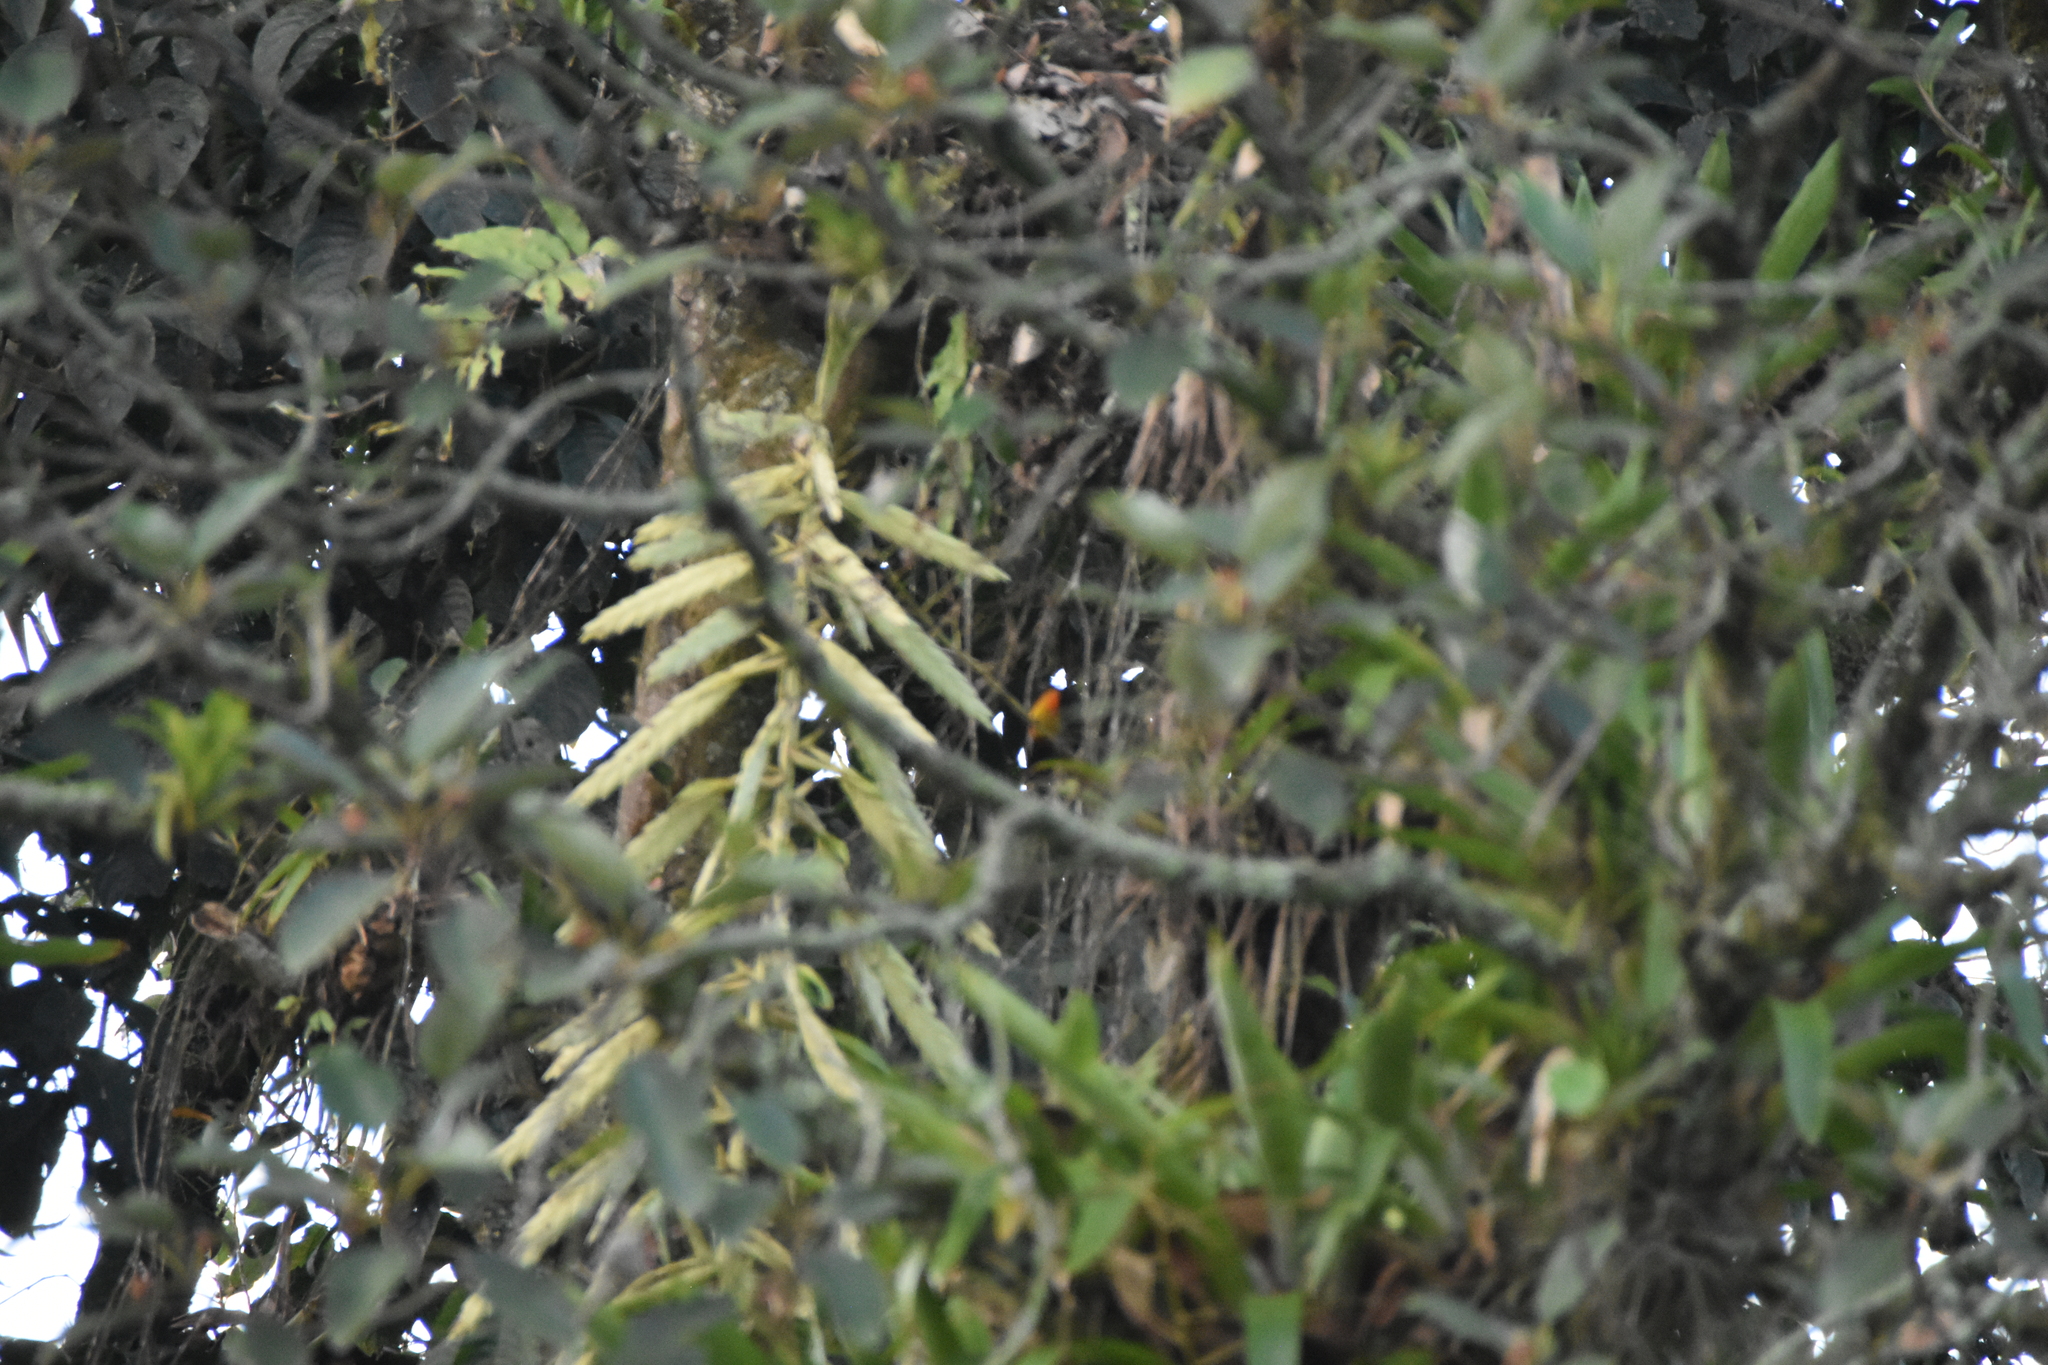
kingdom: Plantae
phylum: Tracheophyta
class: Liliopsida
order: Poales
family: Bromeliaceae
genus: Tillandsia
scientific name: Tillandsia fendleri
